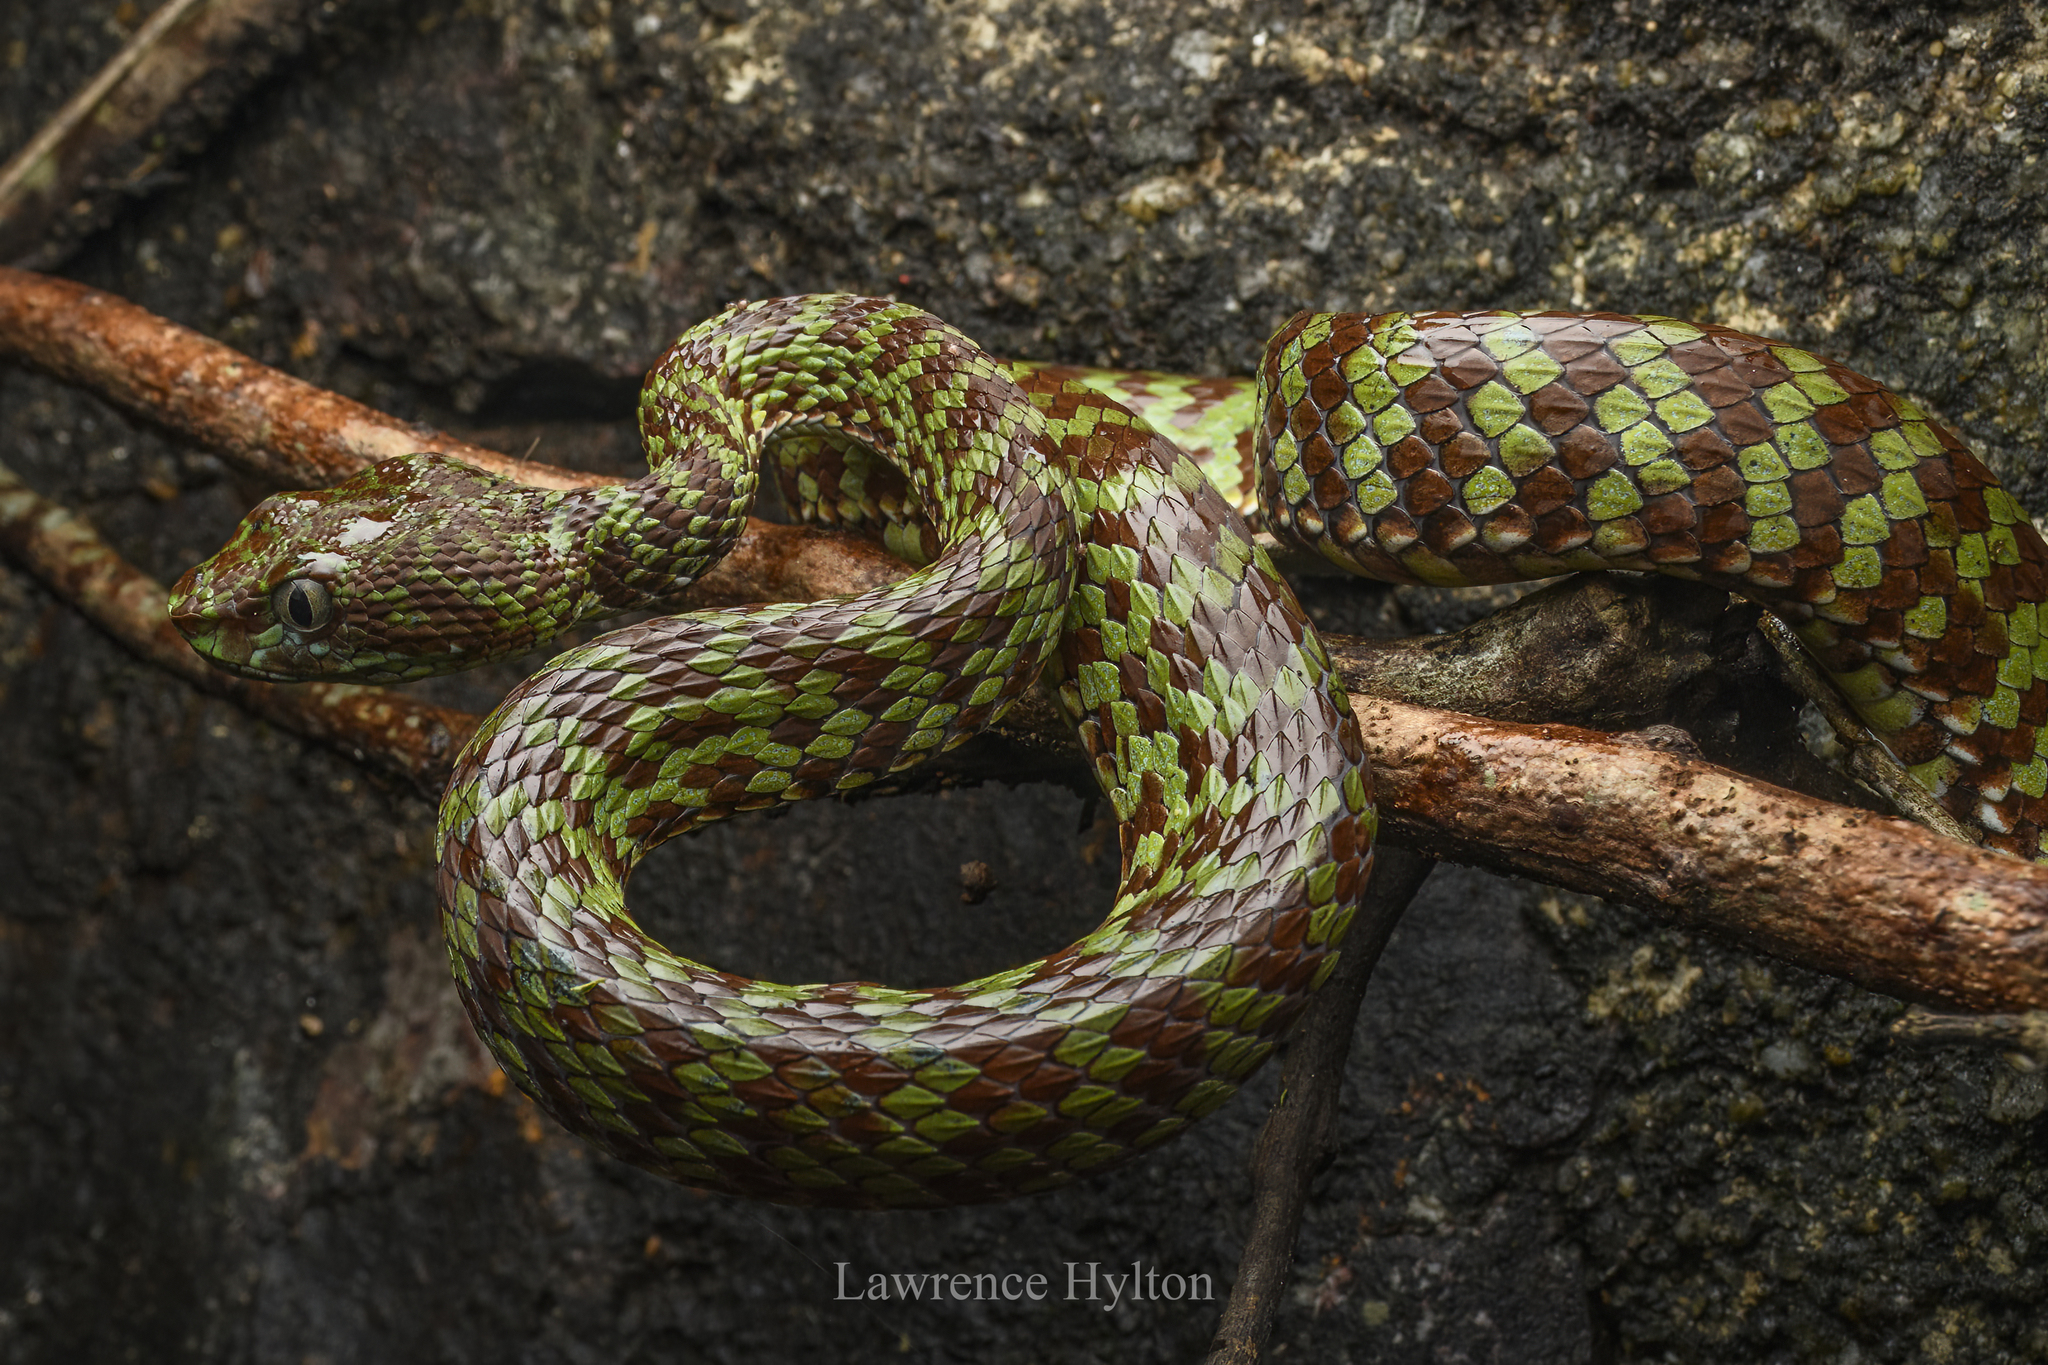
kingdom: Animalia
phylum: Chordata
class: Squamata
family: Viperidae
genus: Trimeresurus
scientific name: Trimeresurus venustus
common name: Brown-spotted pit viper
